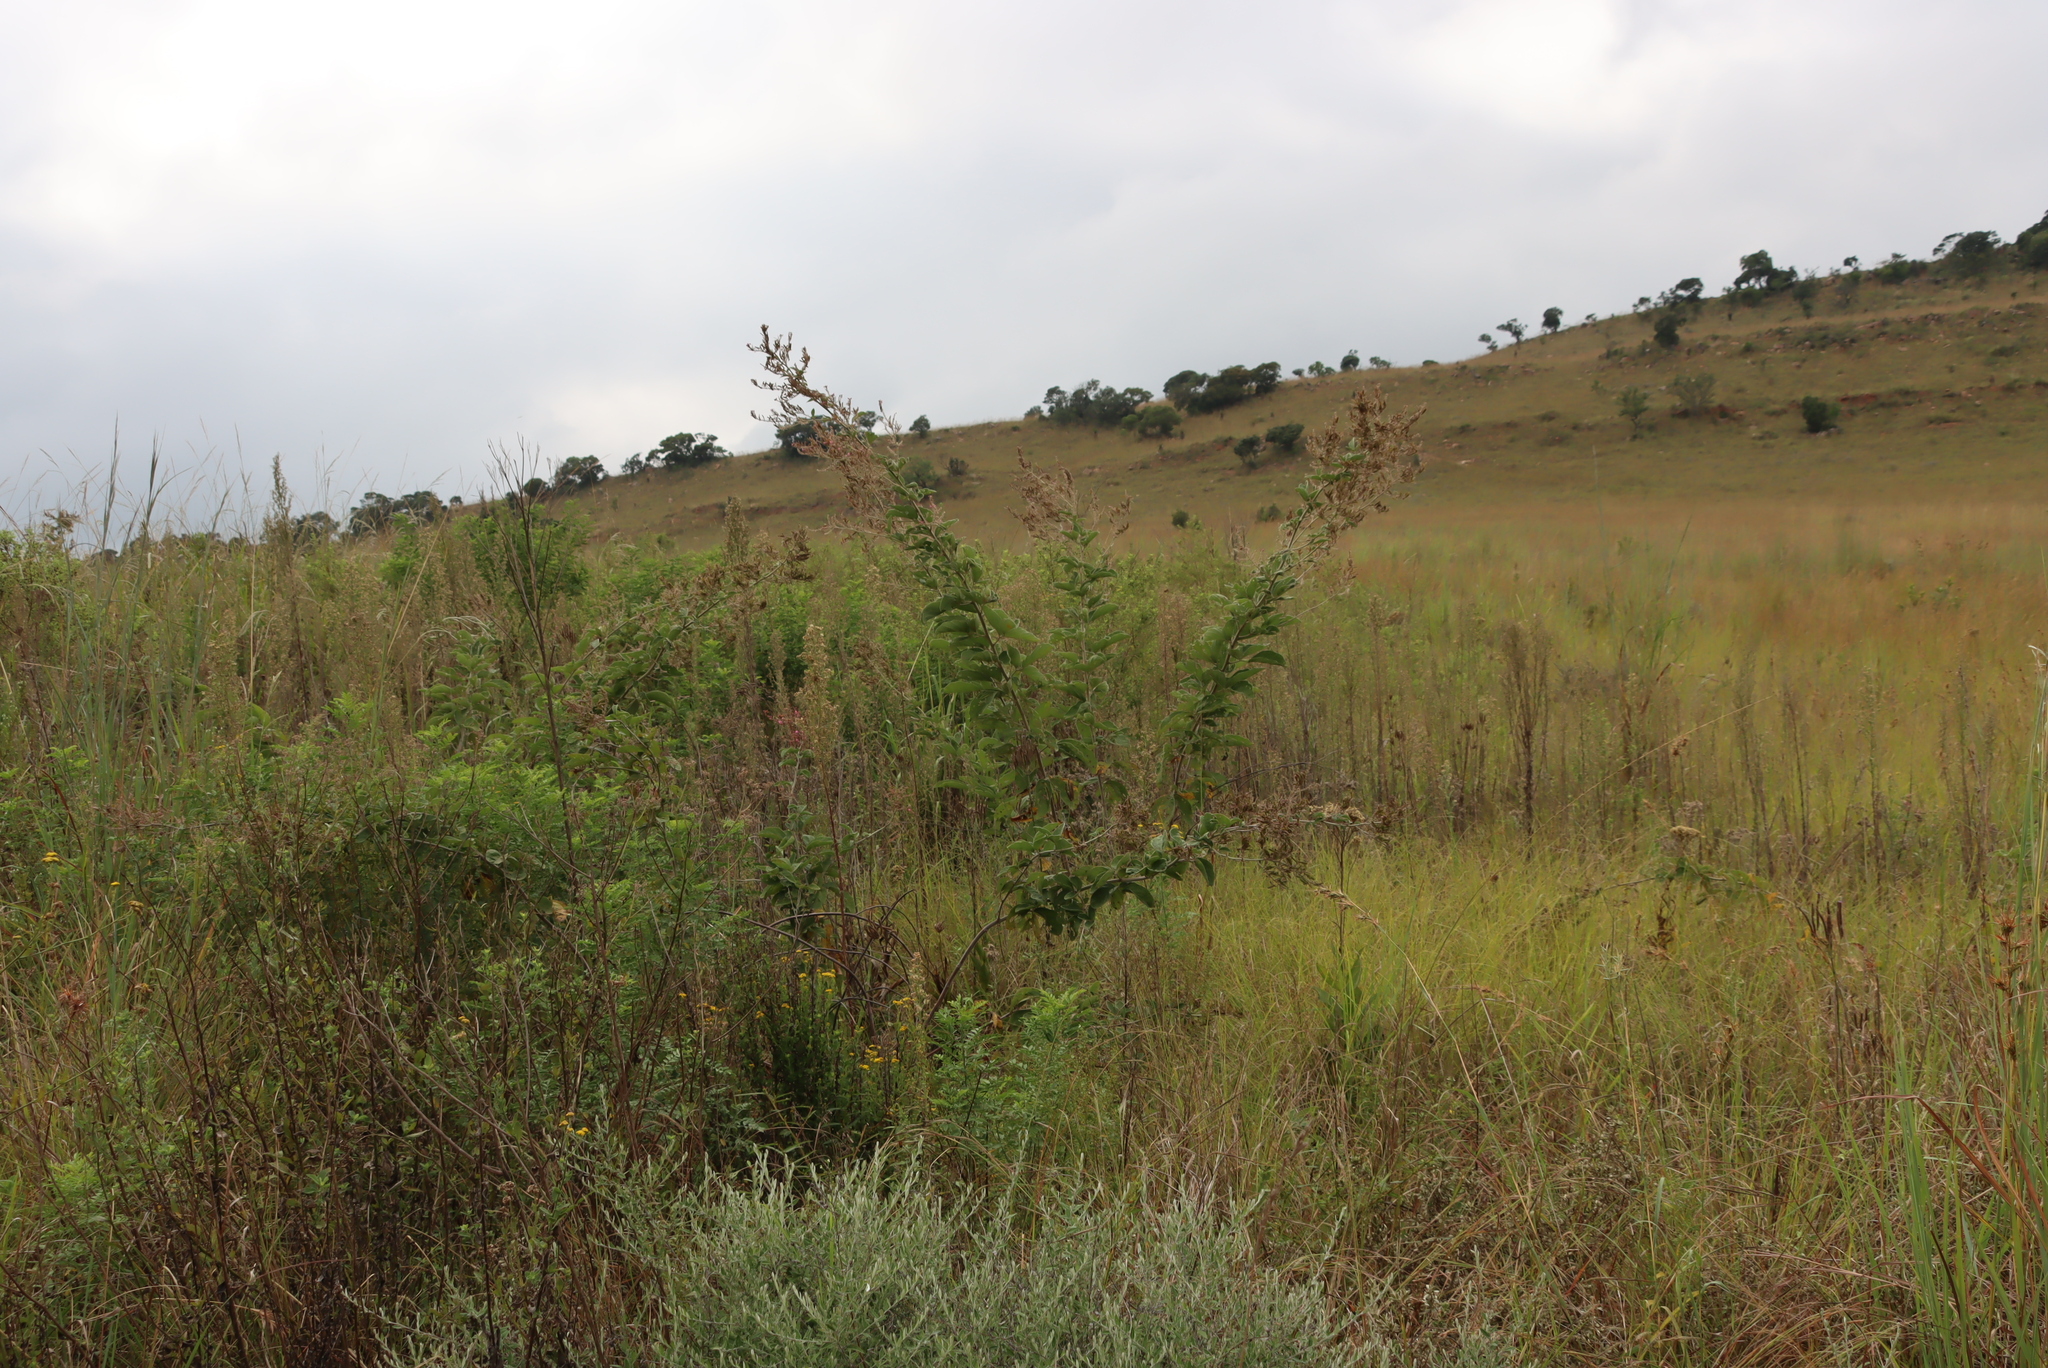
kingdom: Plantae
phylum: Tracheophyta
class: Magnoliopsida
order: Fabales
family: Fabaceae
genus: Pseudarthria
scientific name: Pseudarthria hookeri
